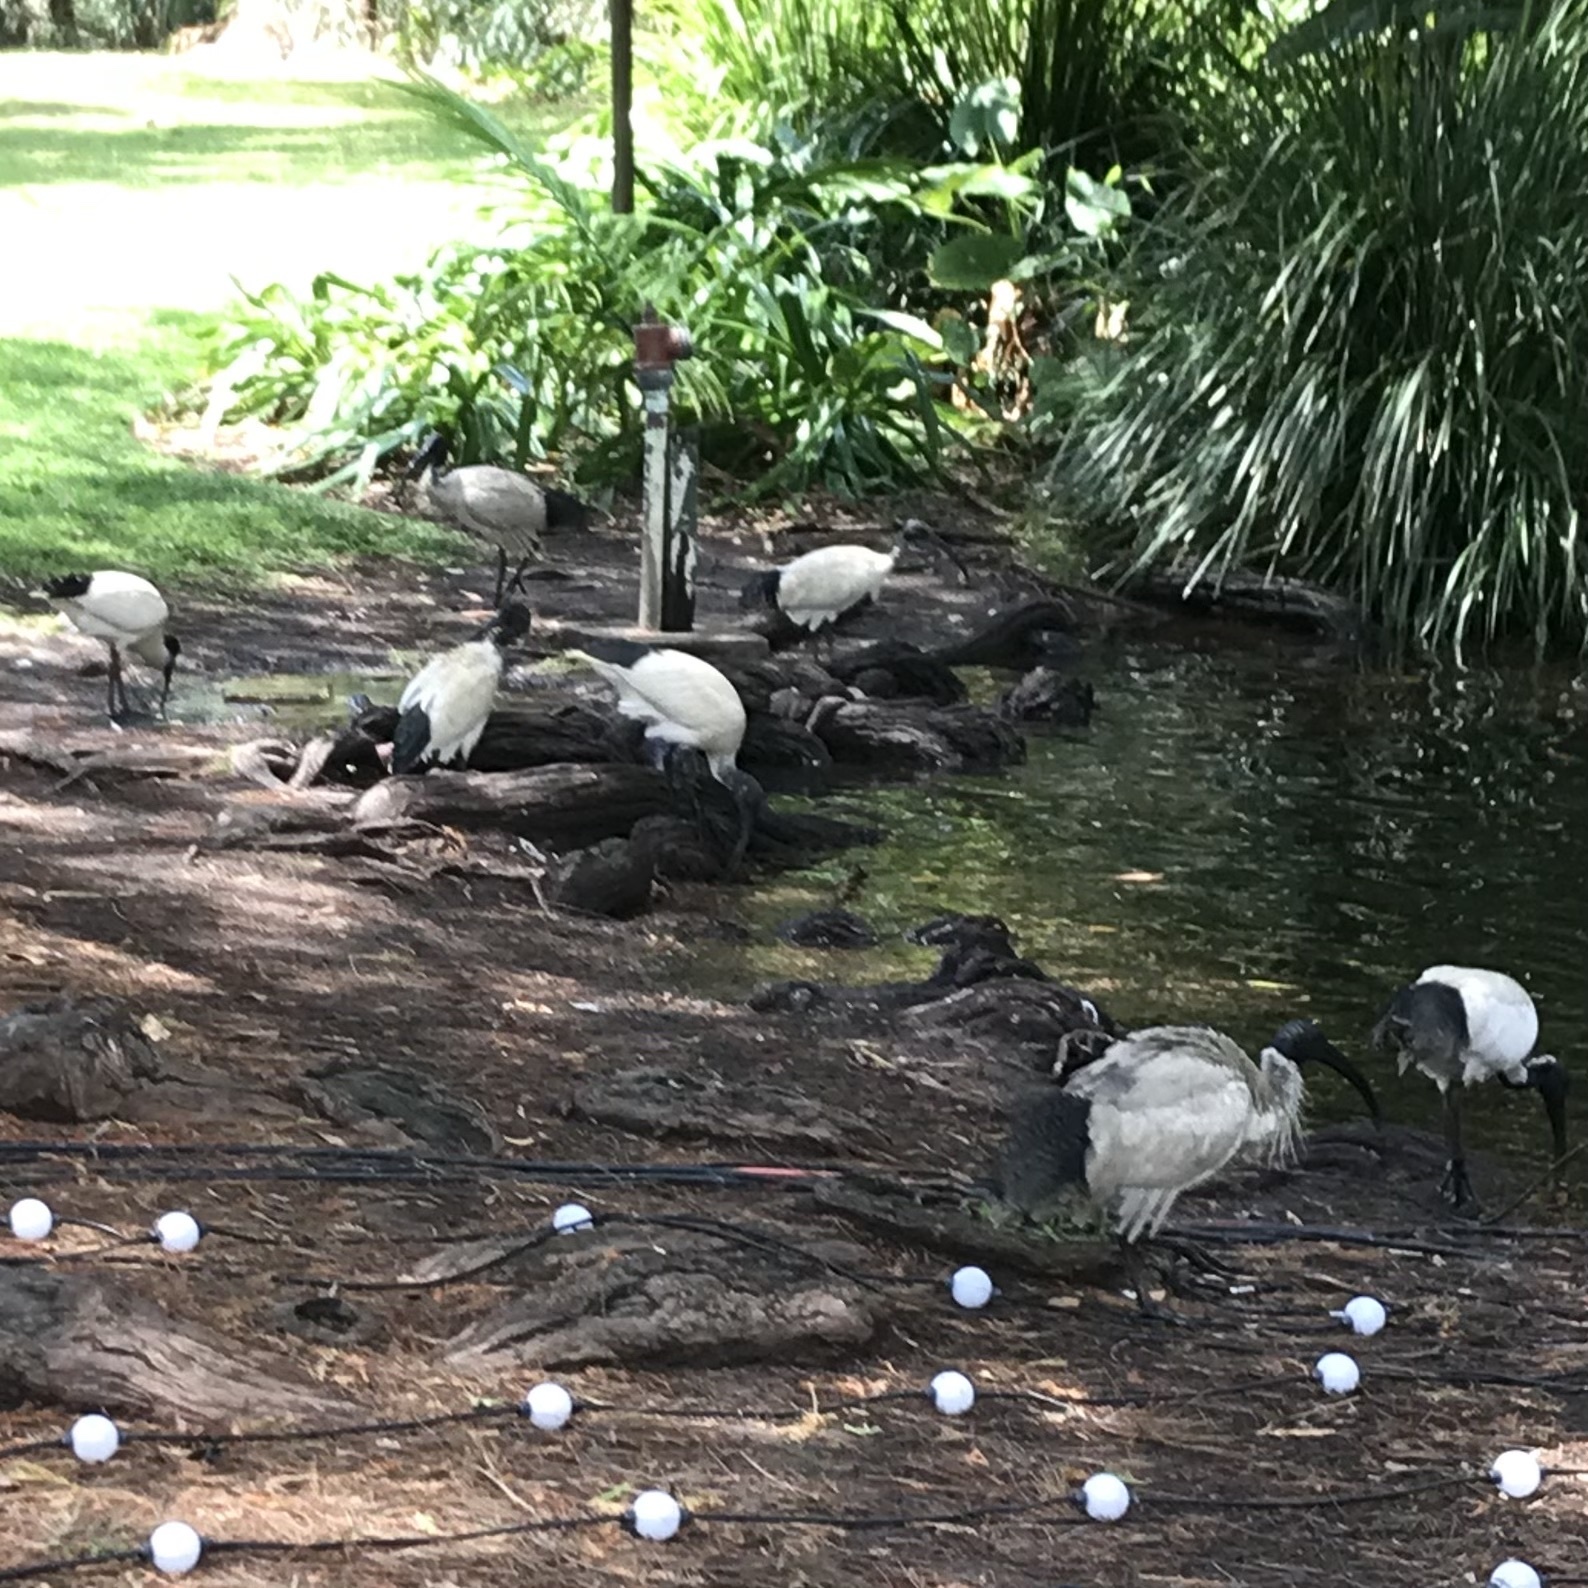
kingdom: Animalia
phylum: Chordata
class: Aves
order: Pelecaniformes
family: Threskiornithidae
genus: Threskiornis
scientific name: Threskiornis molucca
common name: Australian white ibis
